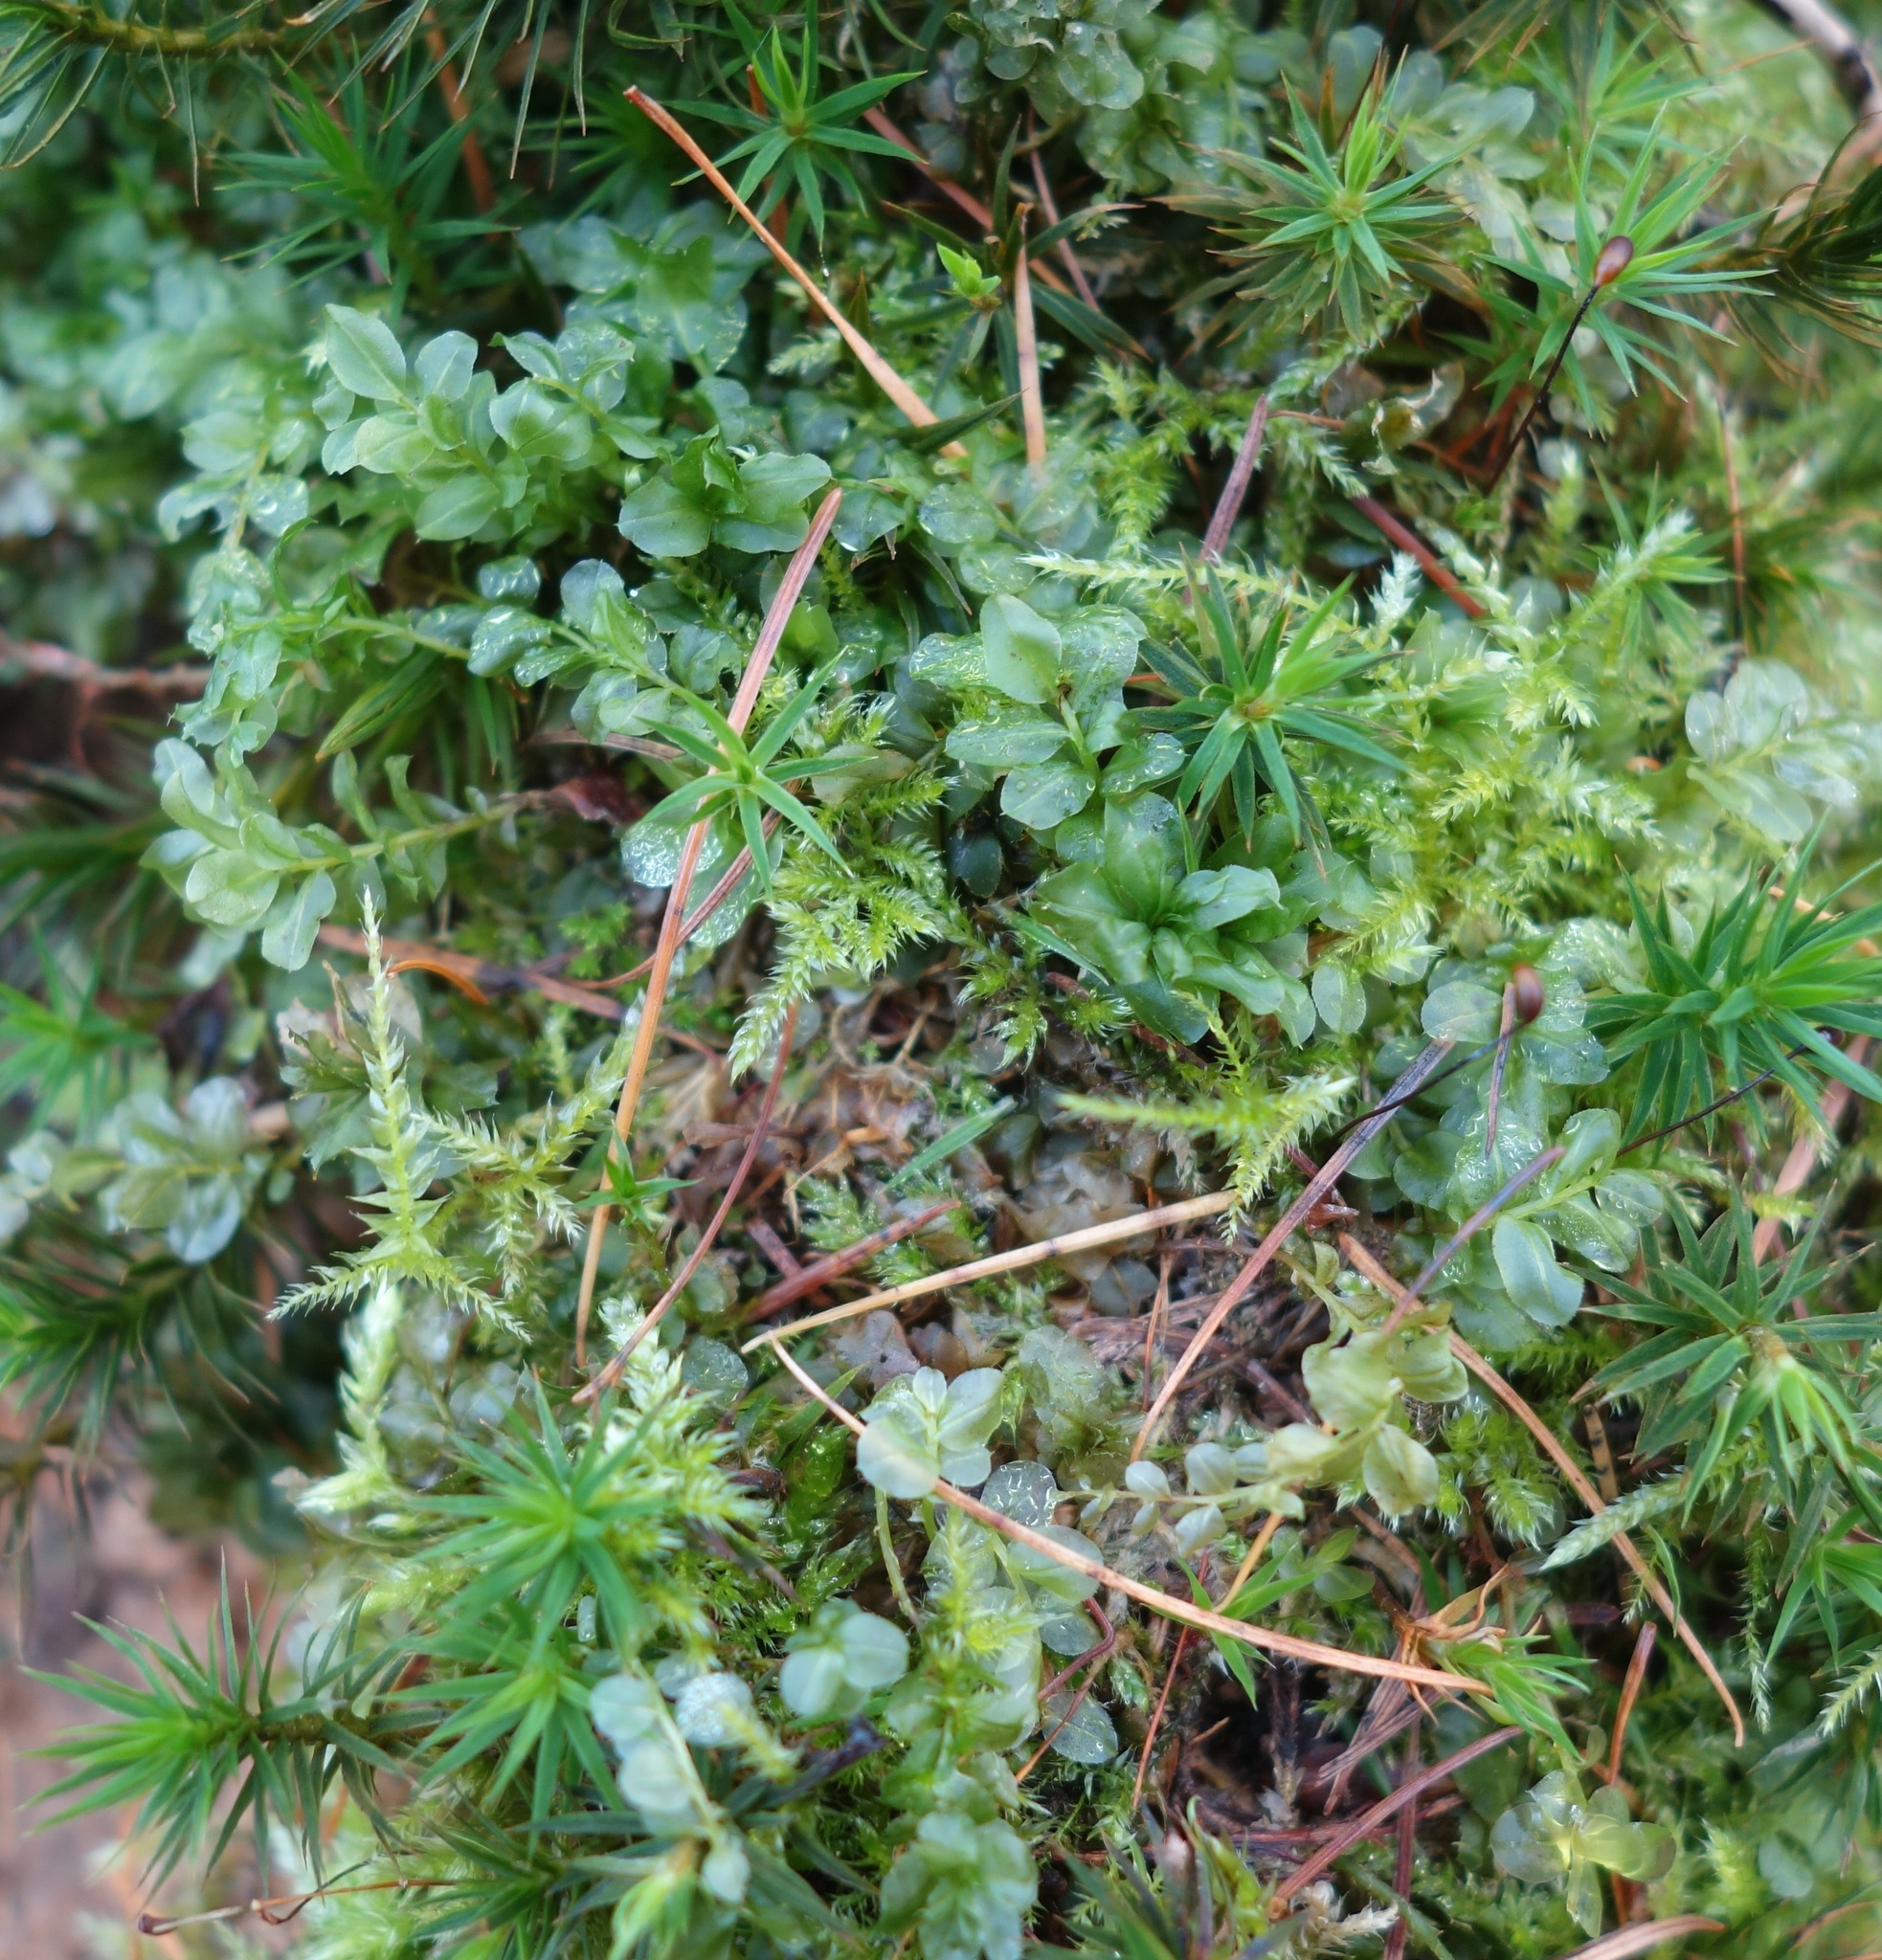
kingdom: Plantae
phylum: Bryophyta
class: Bryopsida
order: Bryales
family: Mniaceae
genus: Plagiomnium
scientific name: Plagiomnium affine
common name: Many-fruited thyme-moss
